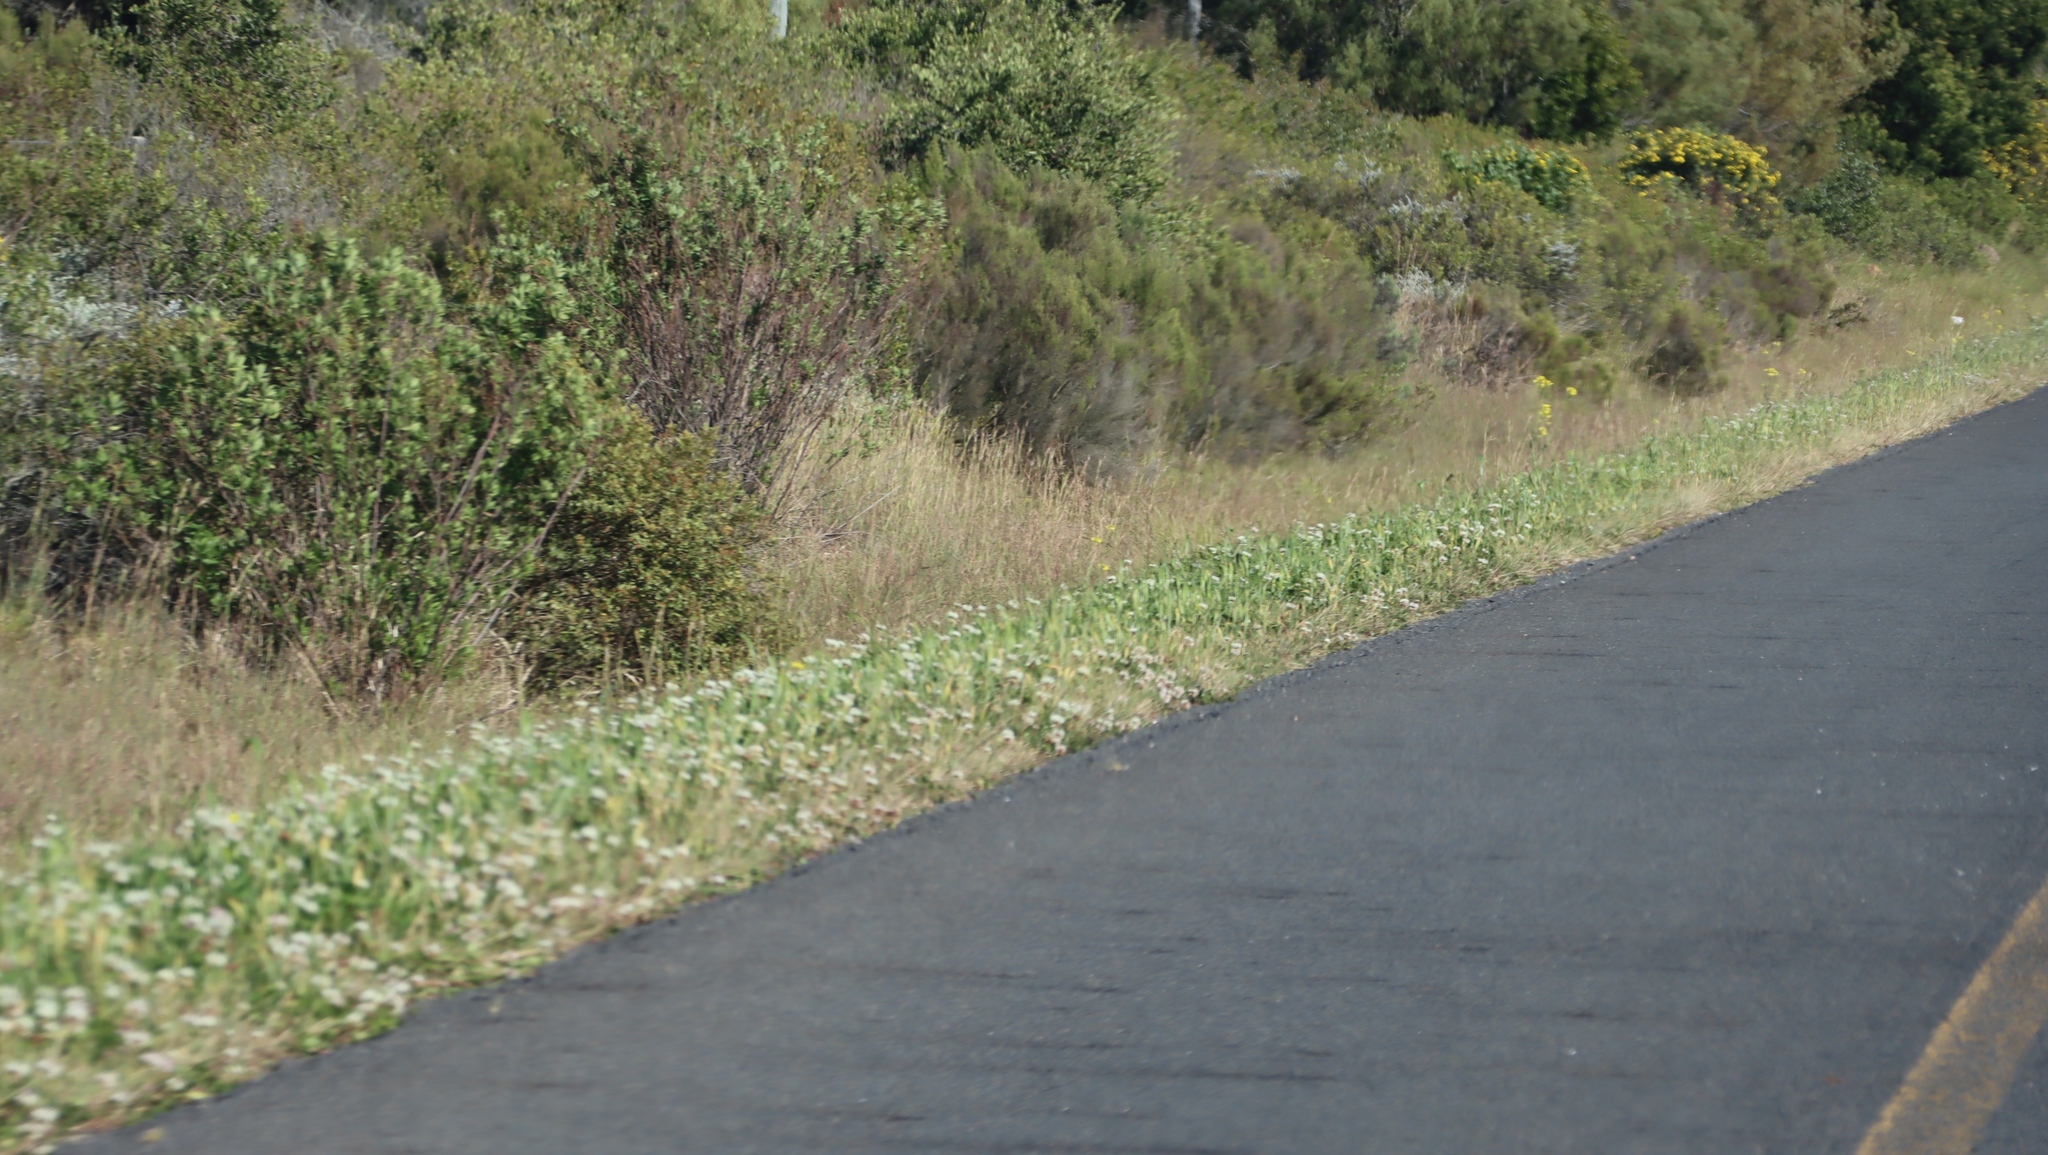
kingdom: Plantae
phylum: Tracheophyta
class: Magnoliopsida
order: Fabales
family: Fabaceae
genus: Trifolium
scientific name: Trifolium repens
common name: White clover
